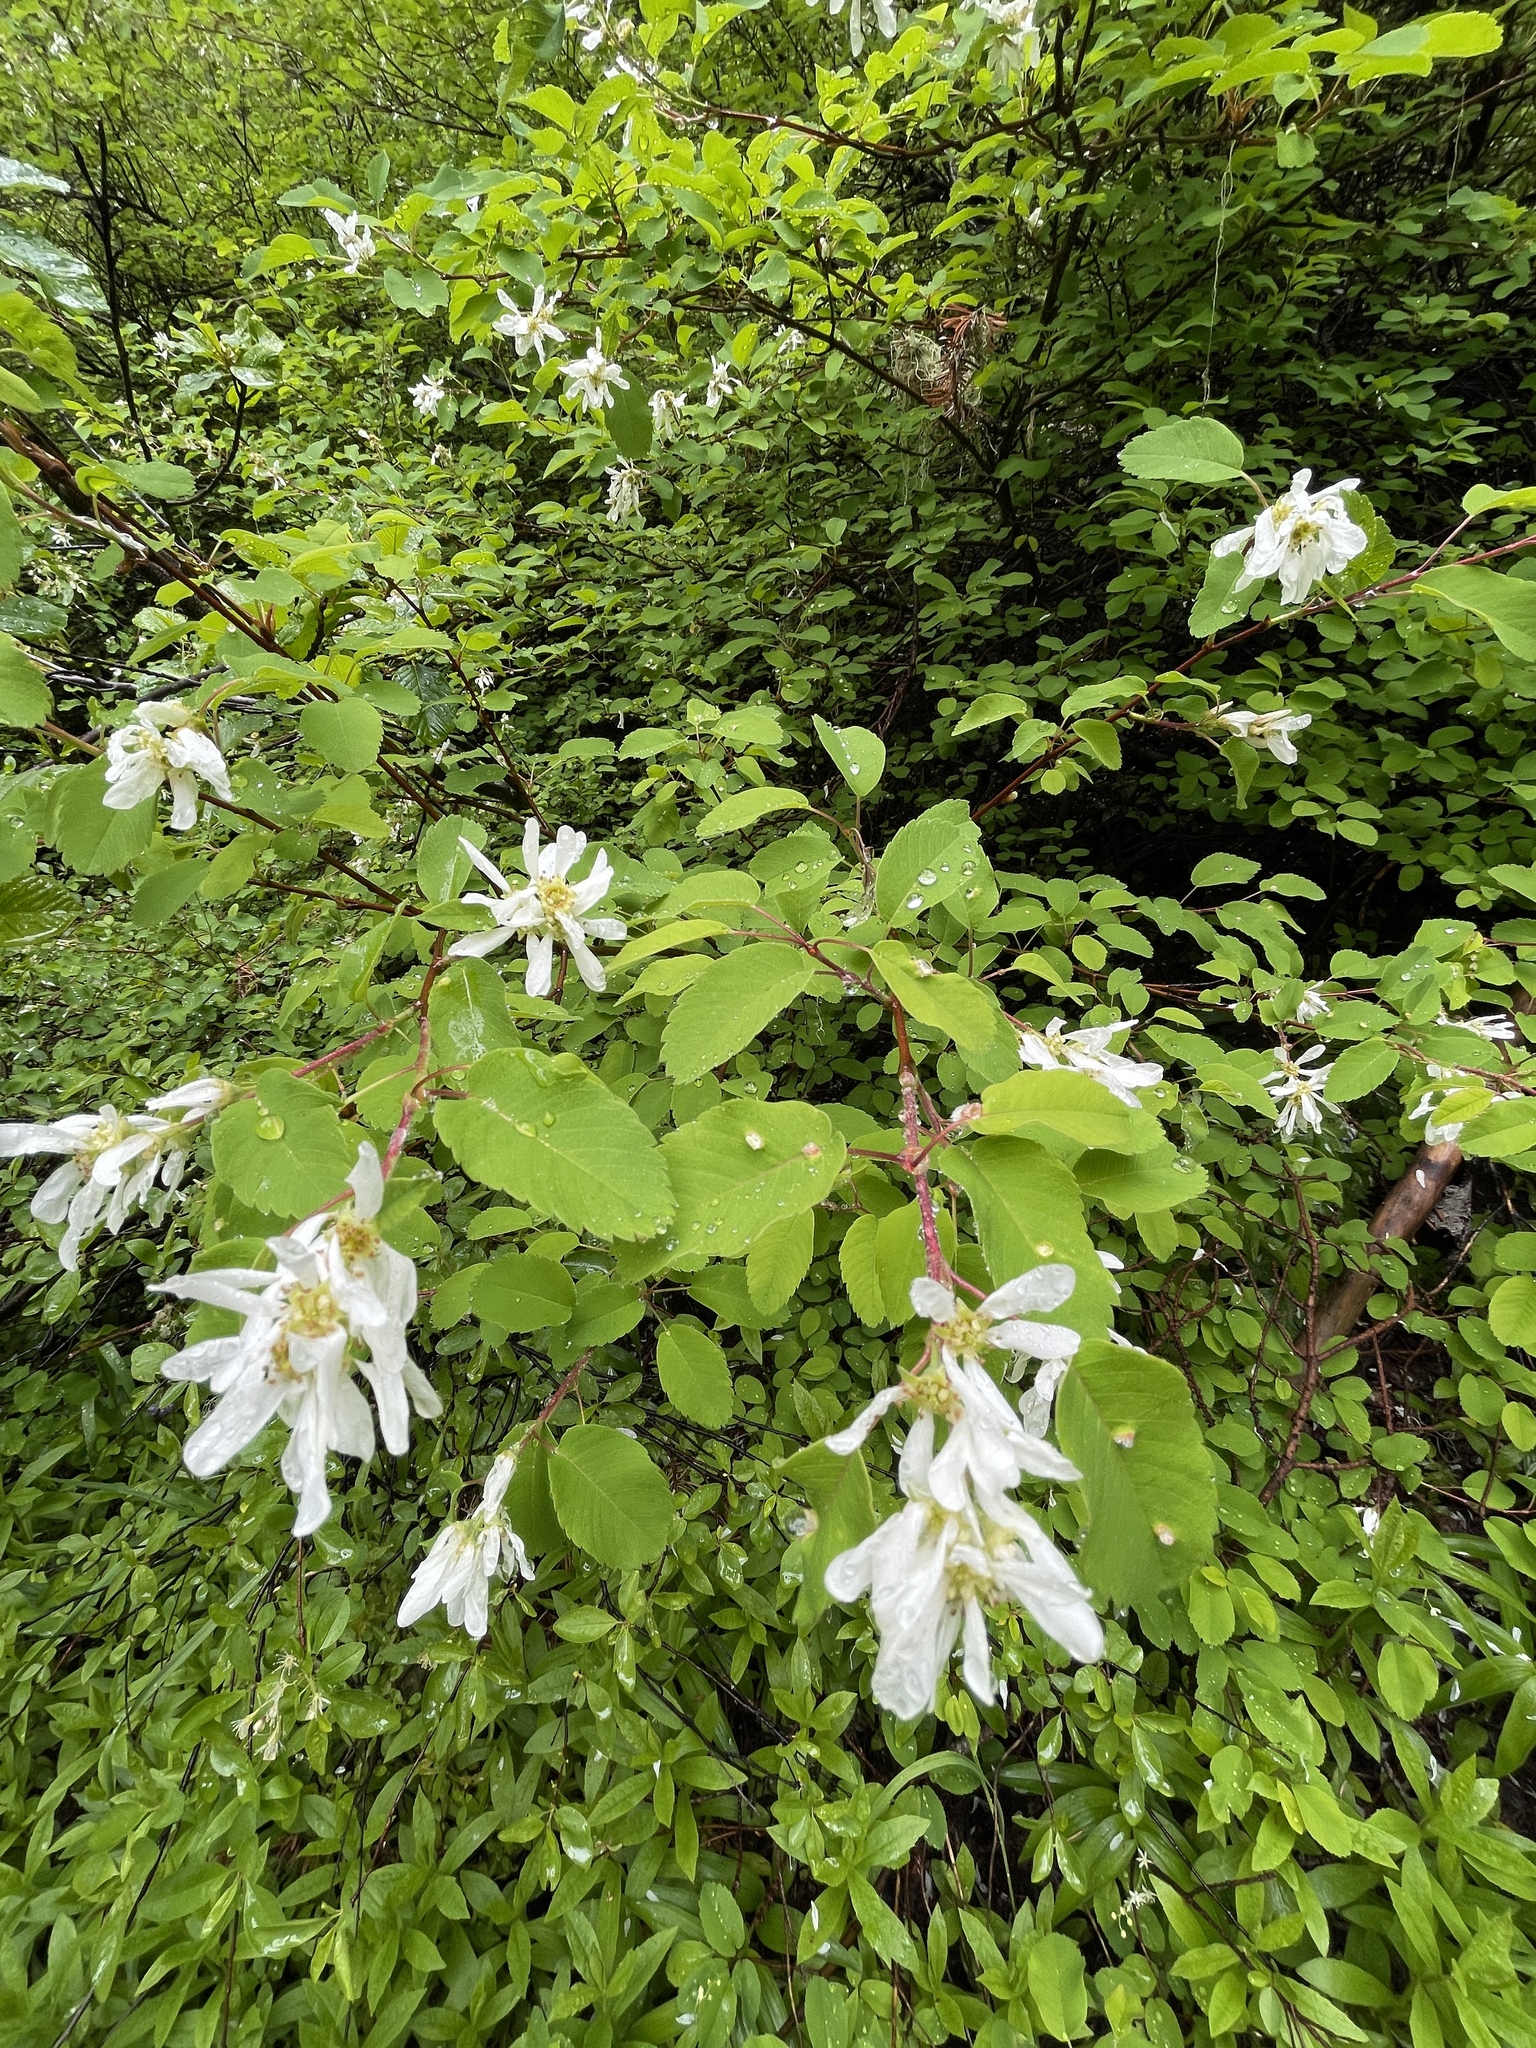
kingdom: Plantae
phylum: Tracheophyta
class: Magnoliopsida
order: Rosales
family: Rosaceae
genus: Amelanchier
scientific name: Amelanchier alnifolia
